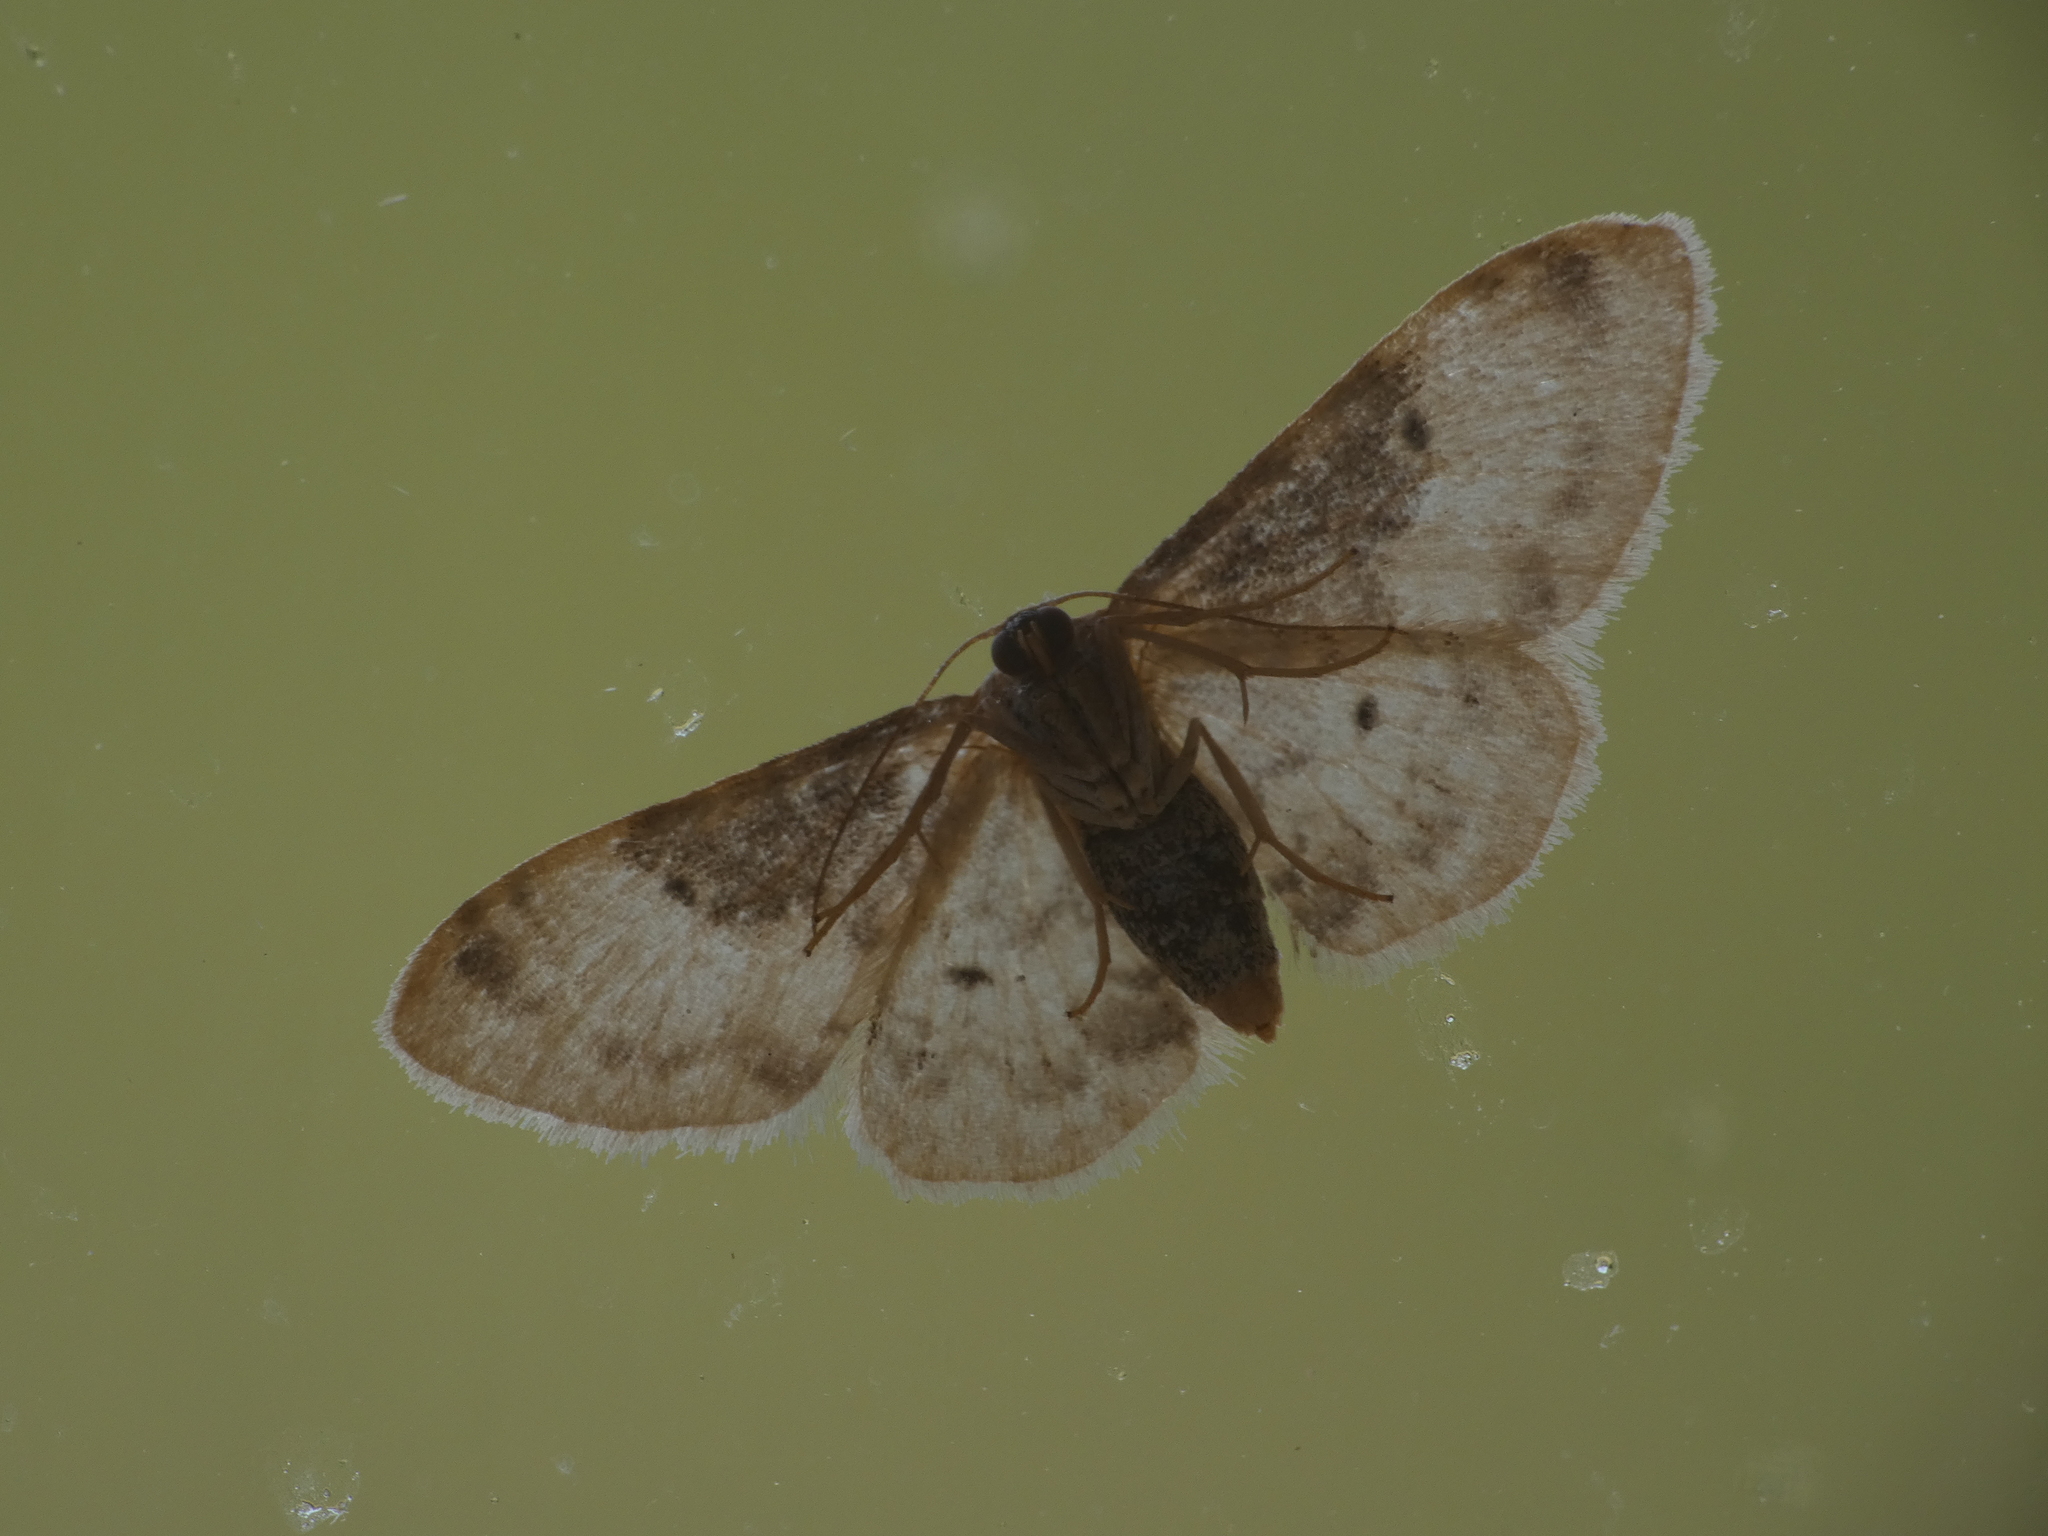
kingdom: Animalia
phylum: Arthropoda
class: Insecta
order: Lepidoptera
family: Geometridae
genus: Idaea
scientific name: Idaea filicata
